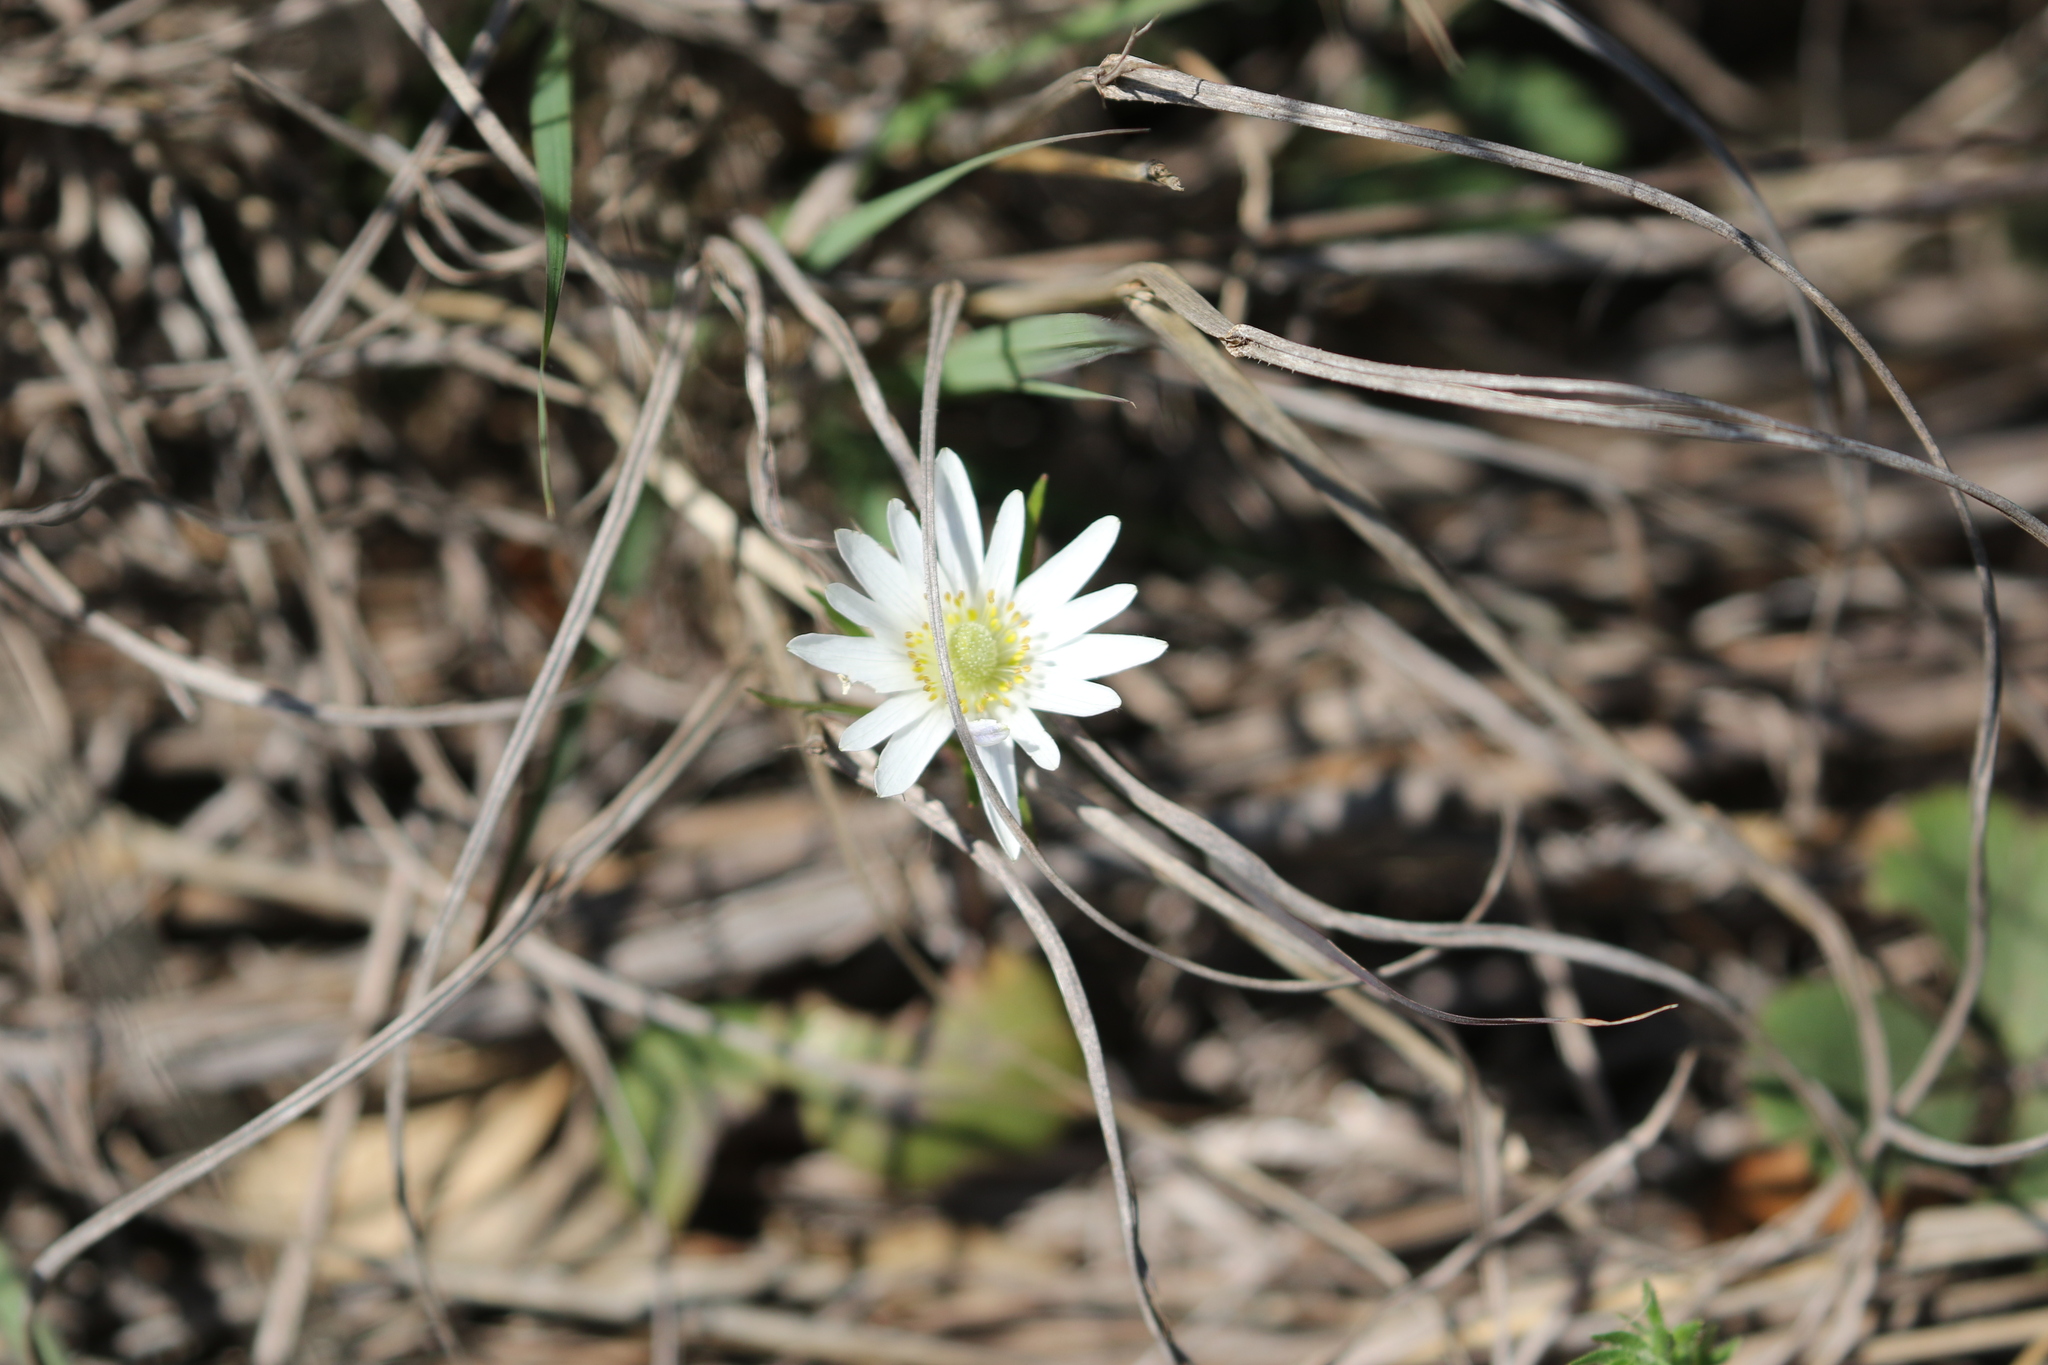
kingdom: Plantae
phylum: Tracheophyta
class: Magnoliopsida
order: Ranunculales
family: Ranunculaceae
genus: Anemone
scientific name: Anemone berlandieri
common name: Ten-petal anemone
